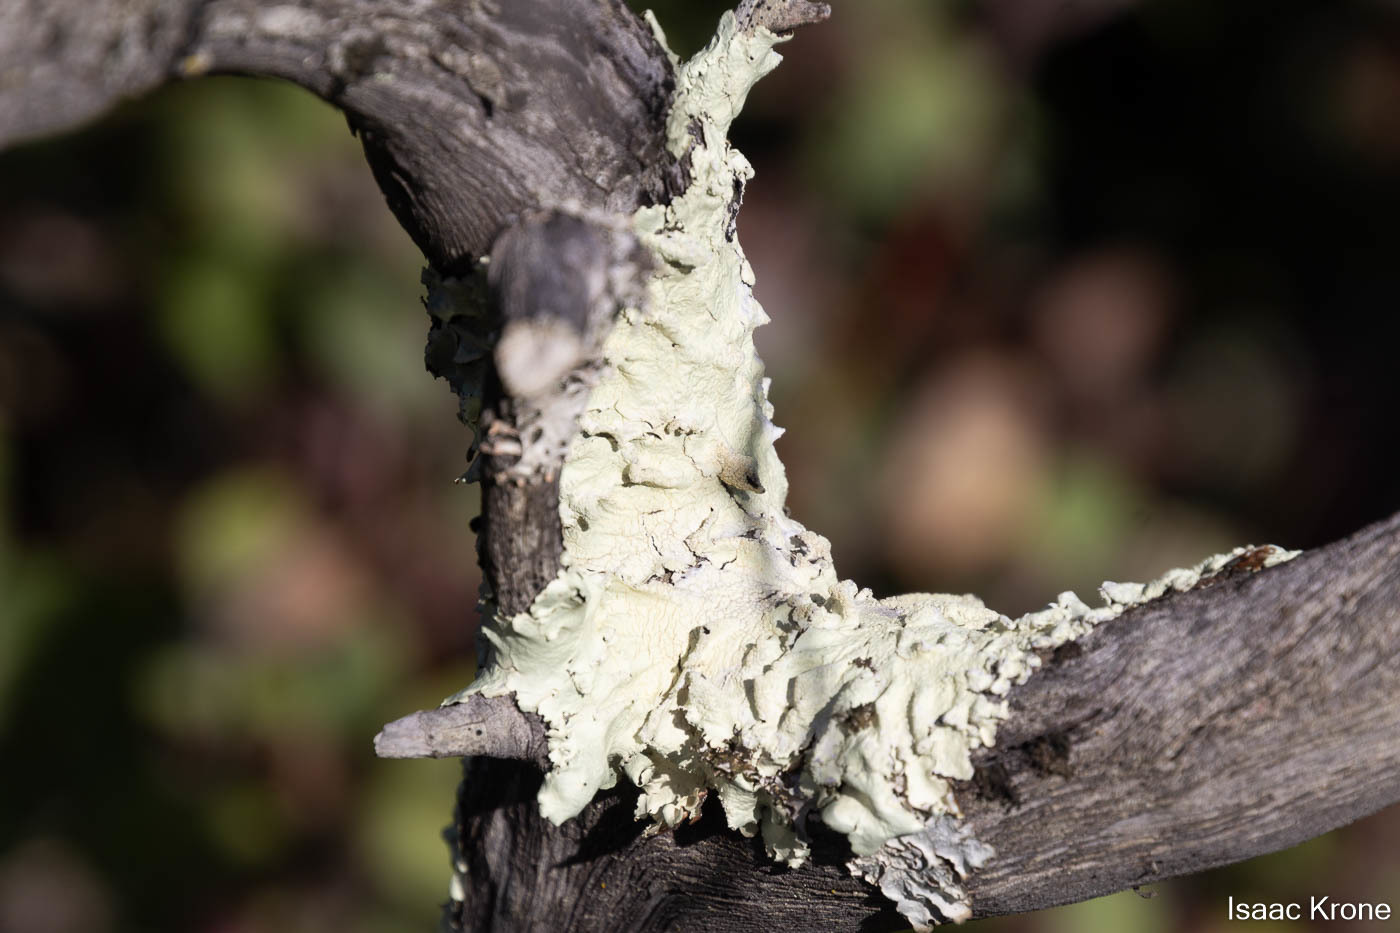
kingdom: Fungi
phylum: Ascomycota
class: Lecanoromycetes
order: Lecanorales
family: Parmeliaceae
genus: Flavoparmelia
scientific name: Flavoparmelia caperata
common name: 40-mile per hour lichen
